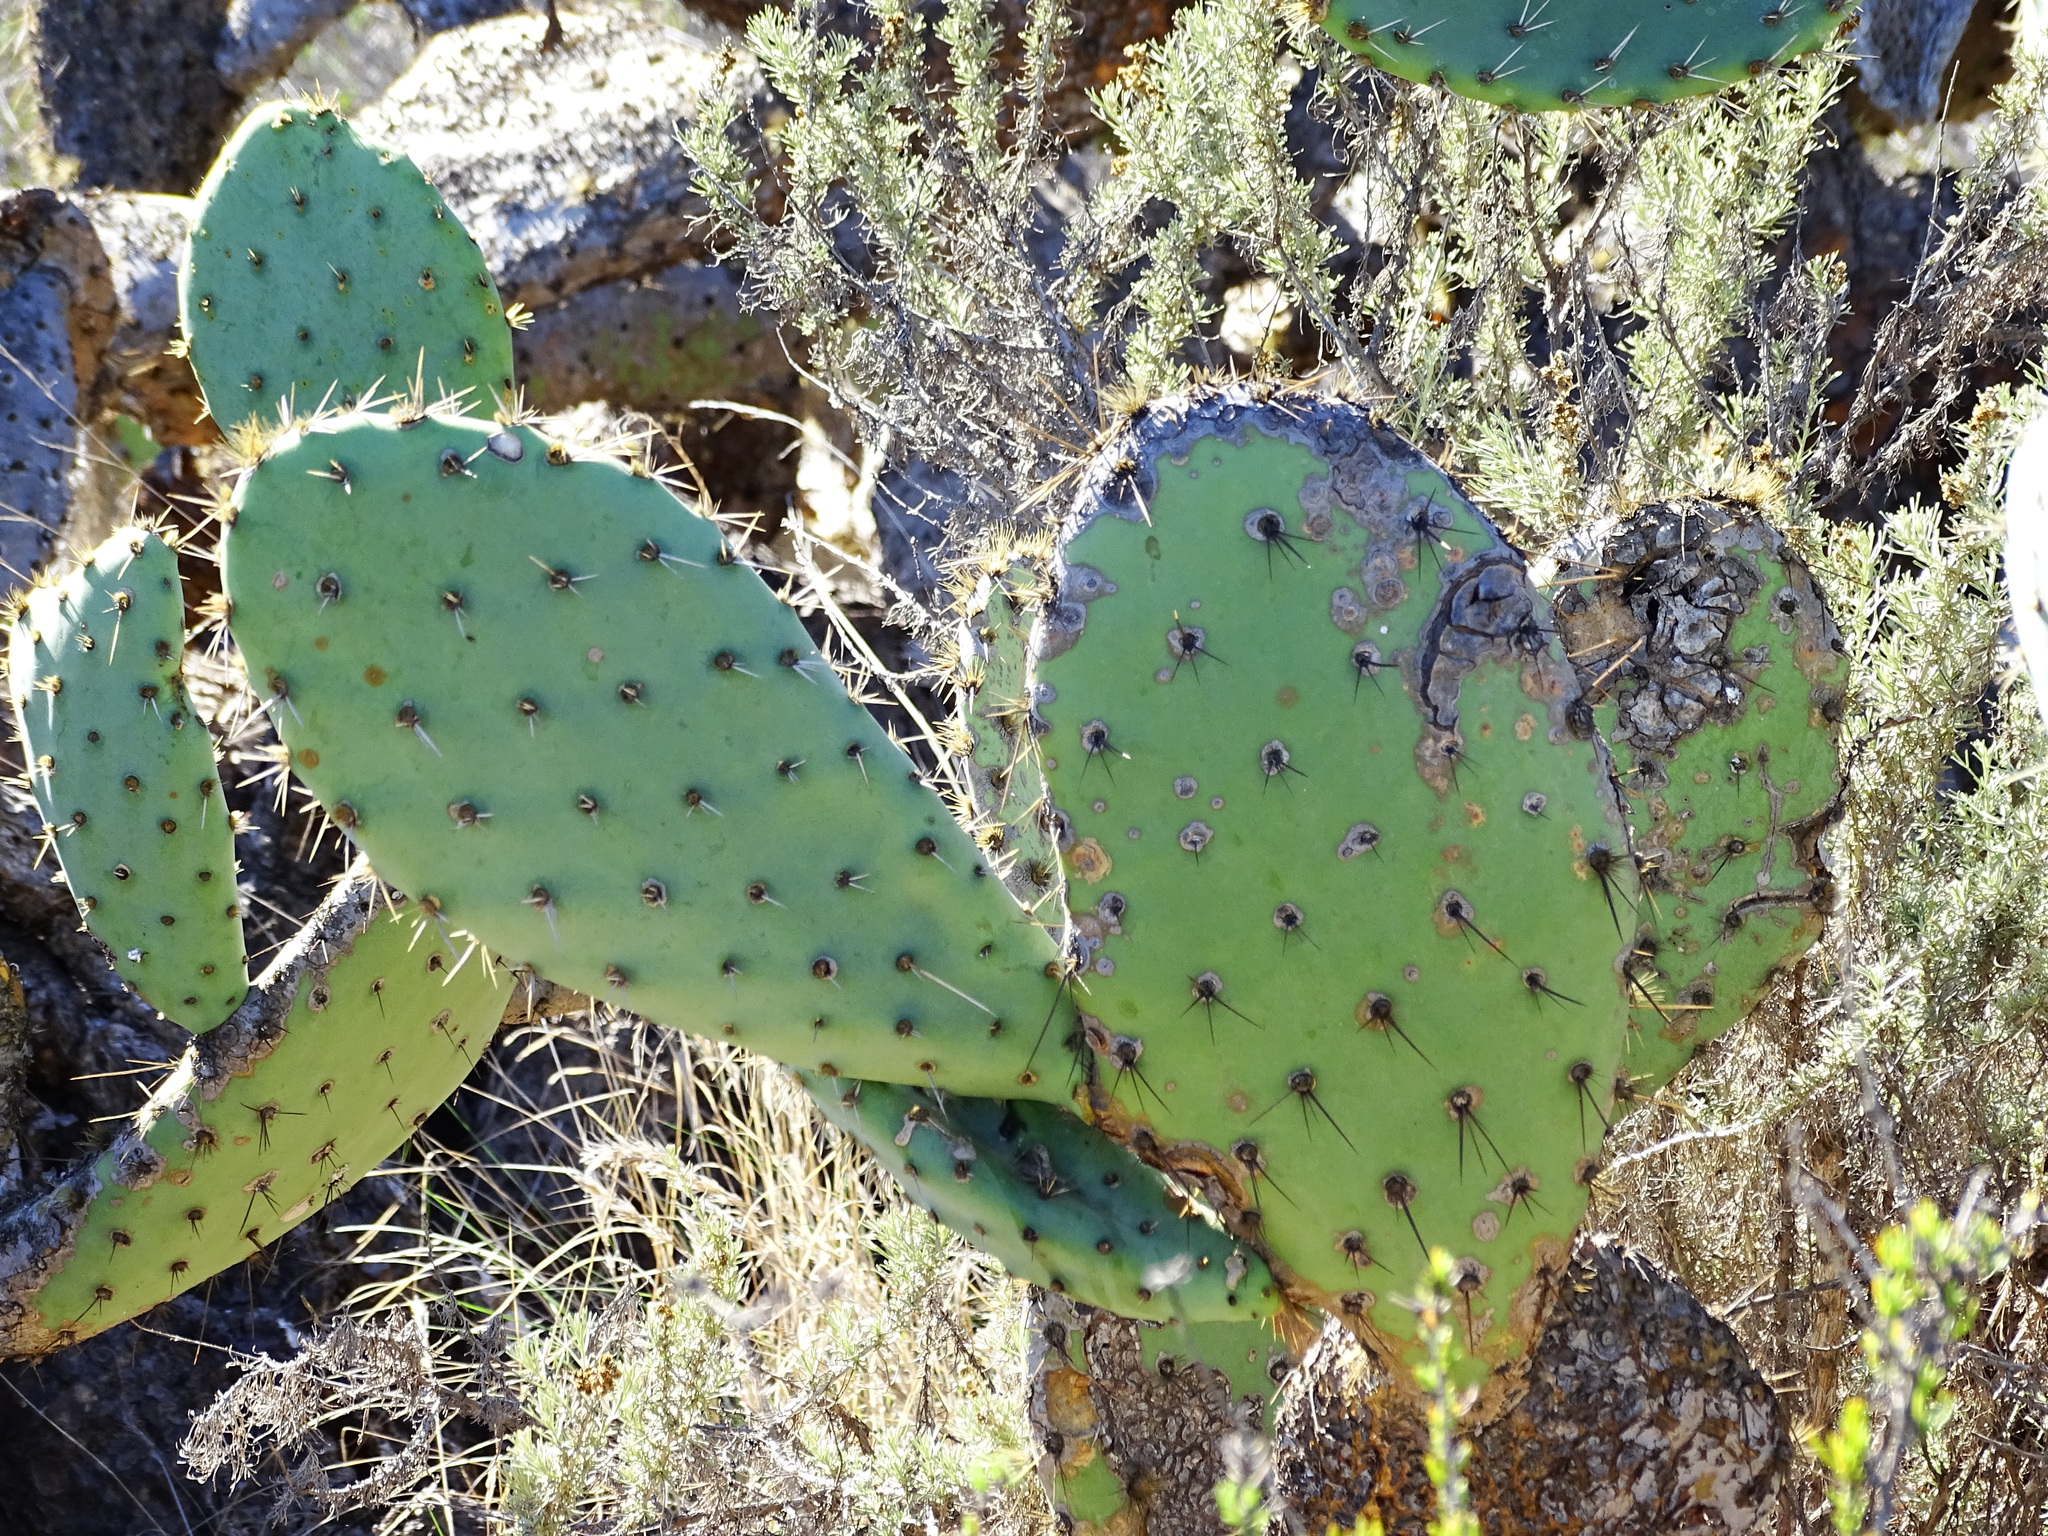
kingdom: Plantae
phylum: Tracheophyta
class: Magnoliopsida
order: Caryophyllales
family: Cactaceae
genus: Opuntia
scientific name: Opuntia
